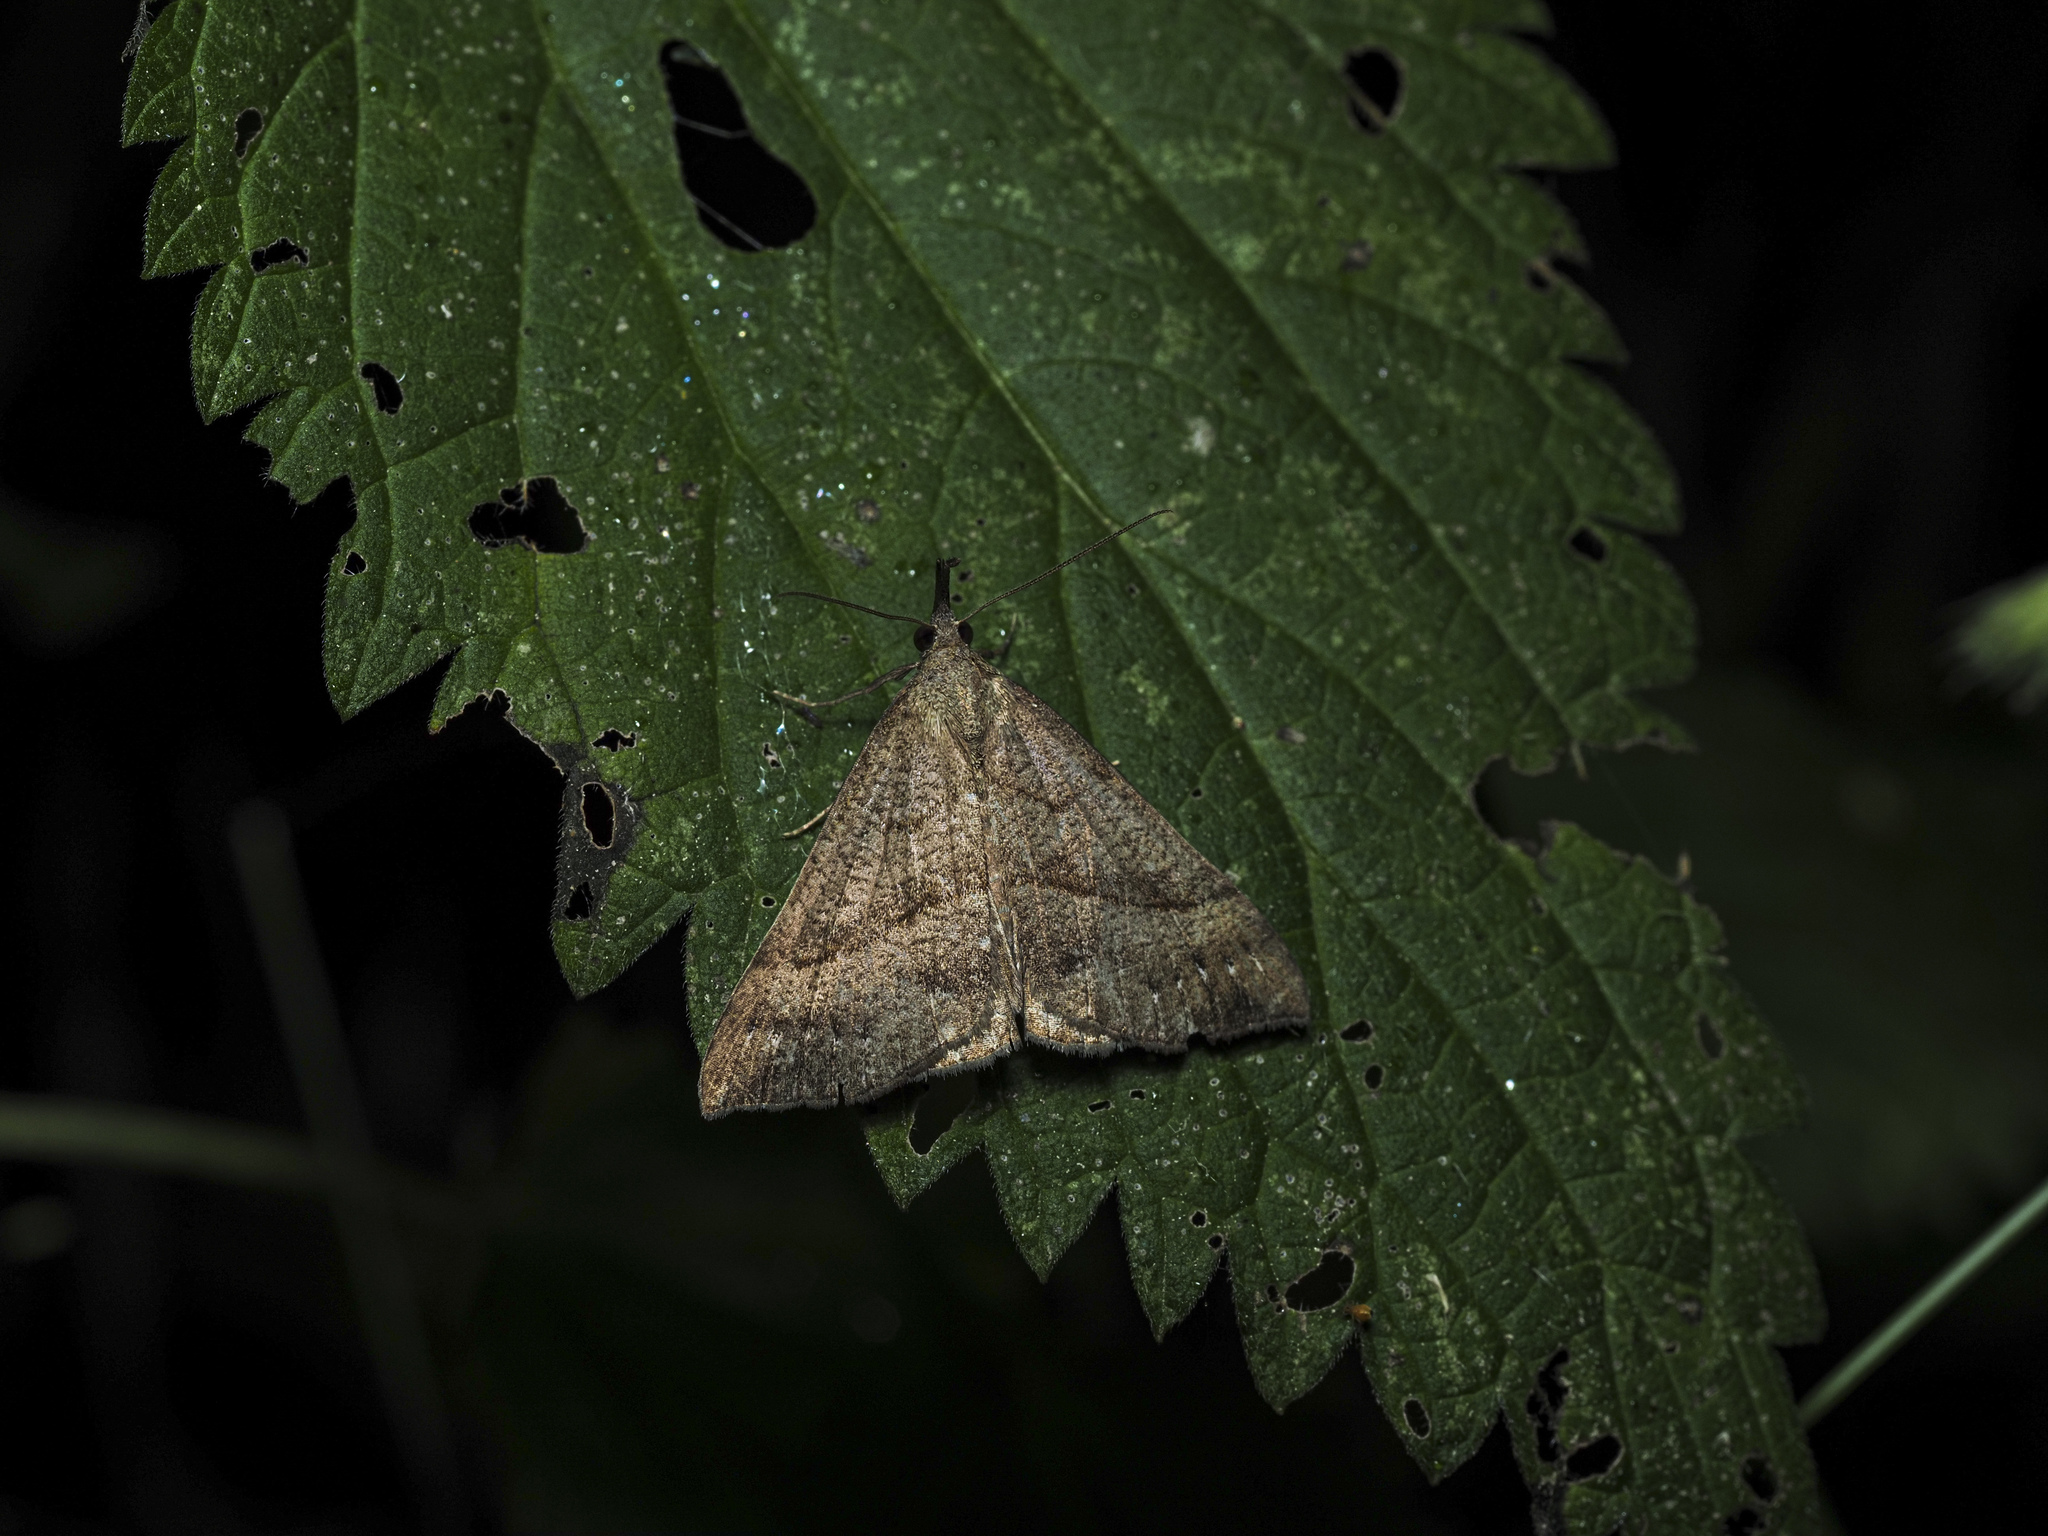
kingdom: Animalia
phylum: Arthropoda
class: Insecta
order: Lepidoptera
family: Erebidae
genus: Hypena
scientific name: Hypena proboscidalis
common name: Snout
